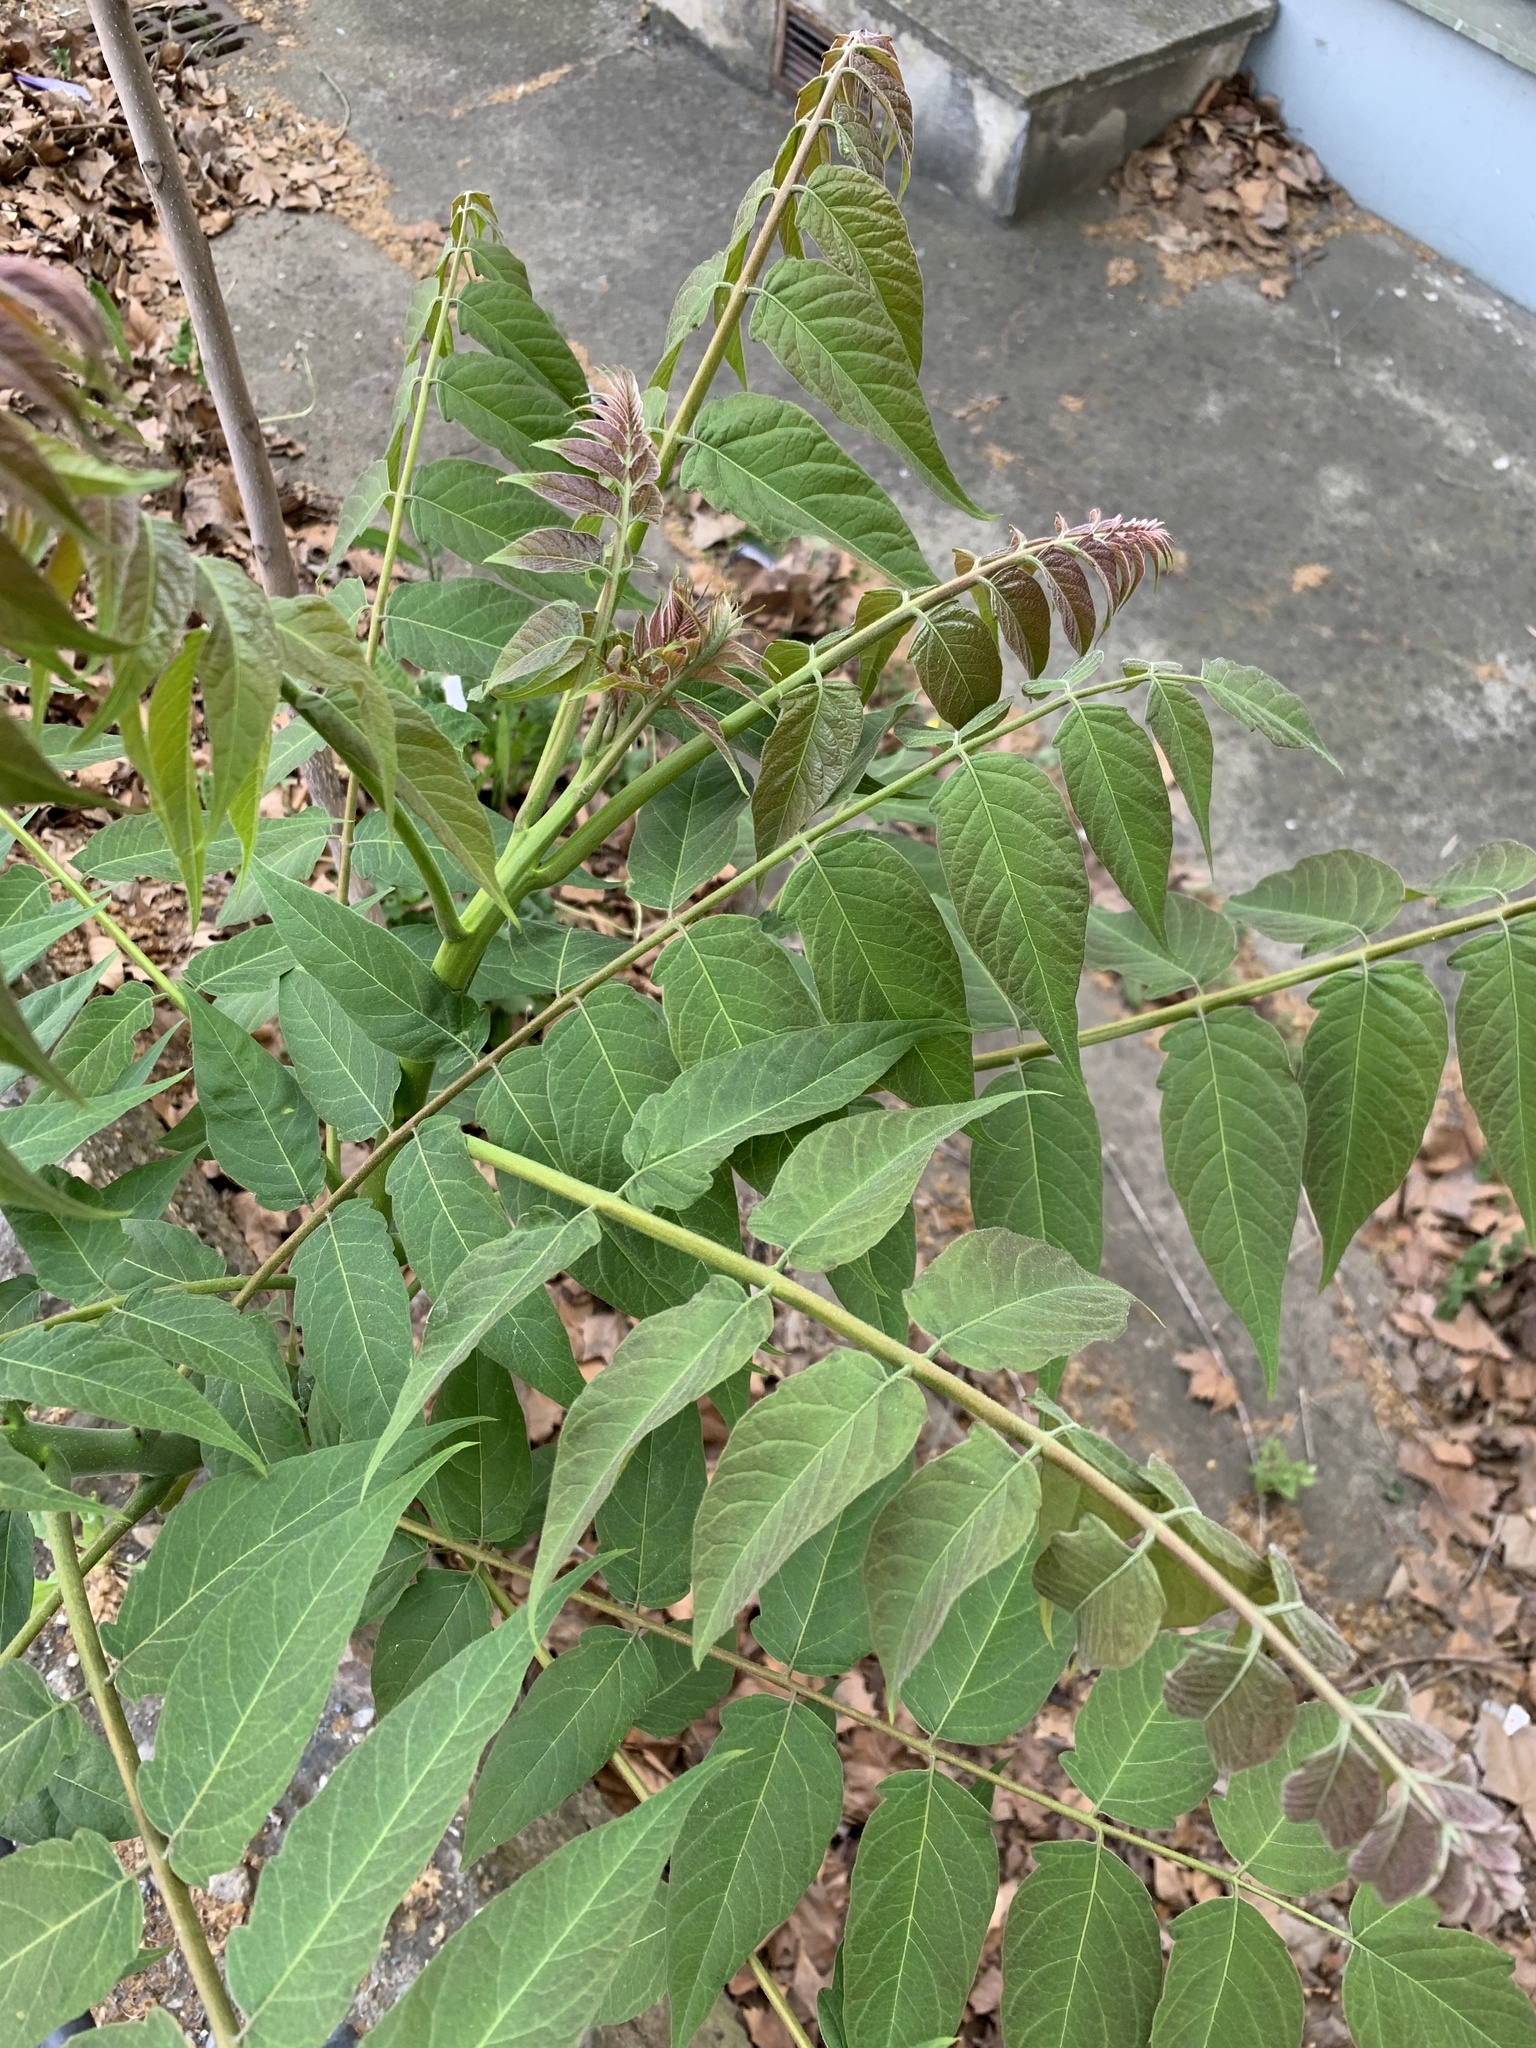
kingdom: Plantae
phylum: Tracheophyta
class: Magnoliopsida
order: Sapindales
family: Simaroubaceae
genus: Ailanthus
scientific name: Ailanthus altissima
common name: Tree-of-heaven
